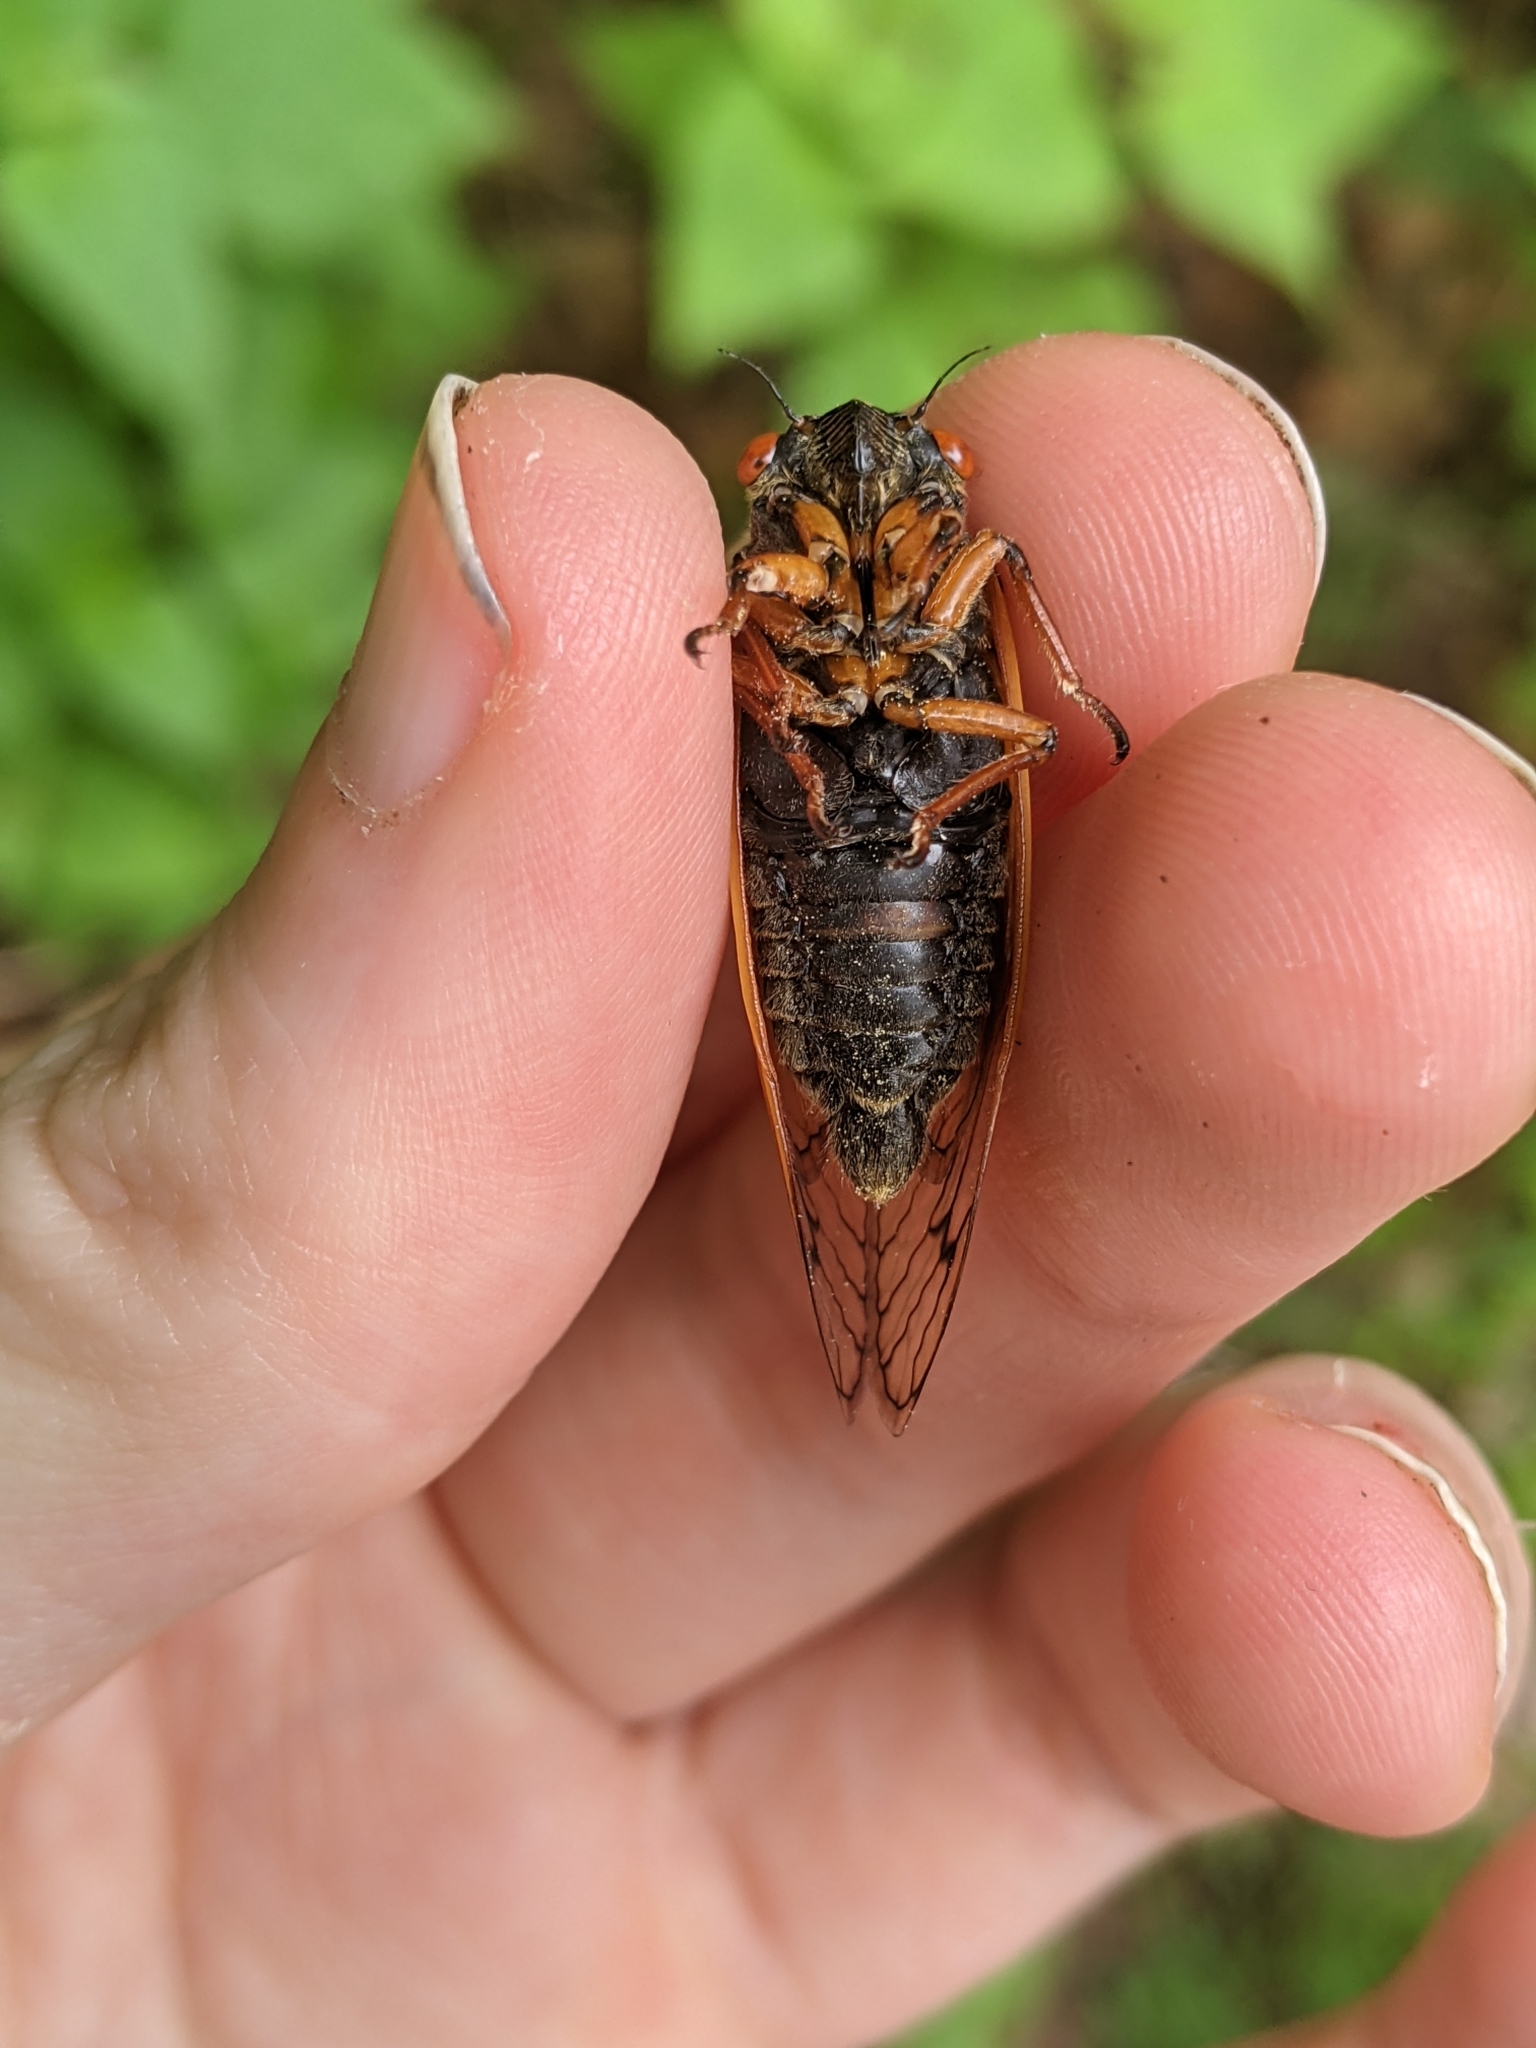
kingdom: Animalia
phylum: Arthropoda
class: Insecta
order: Hemiptera
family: Cicadidae
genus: Magicicada
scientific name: Magicicada cassini
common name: Cassin's 17-year cicada
